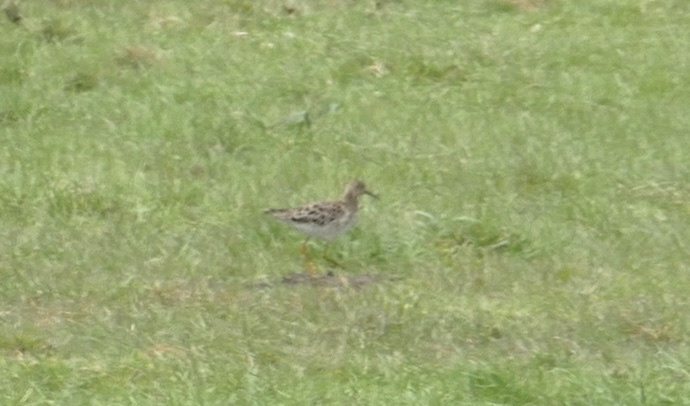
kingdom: Animalia
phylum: Chordata
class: Aves
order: Charadriiformes
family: Scolopacidae
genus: Calidris
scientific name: Calidris pugnax
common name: Ruff
